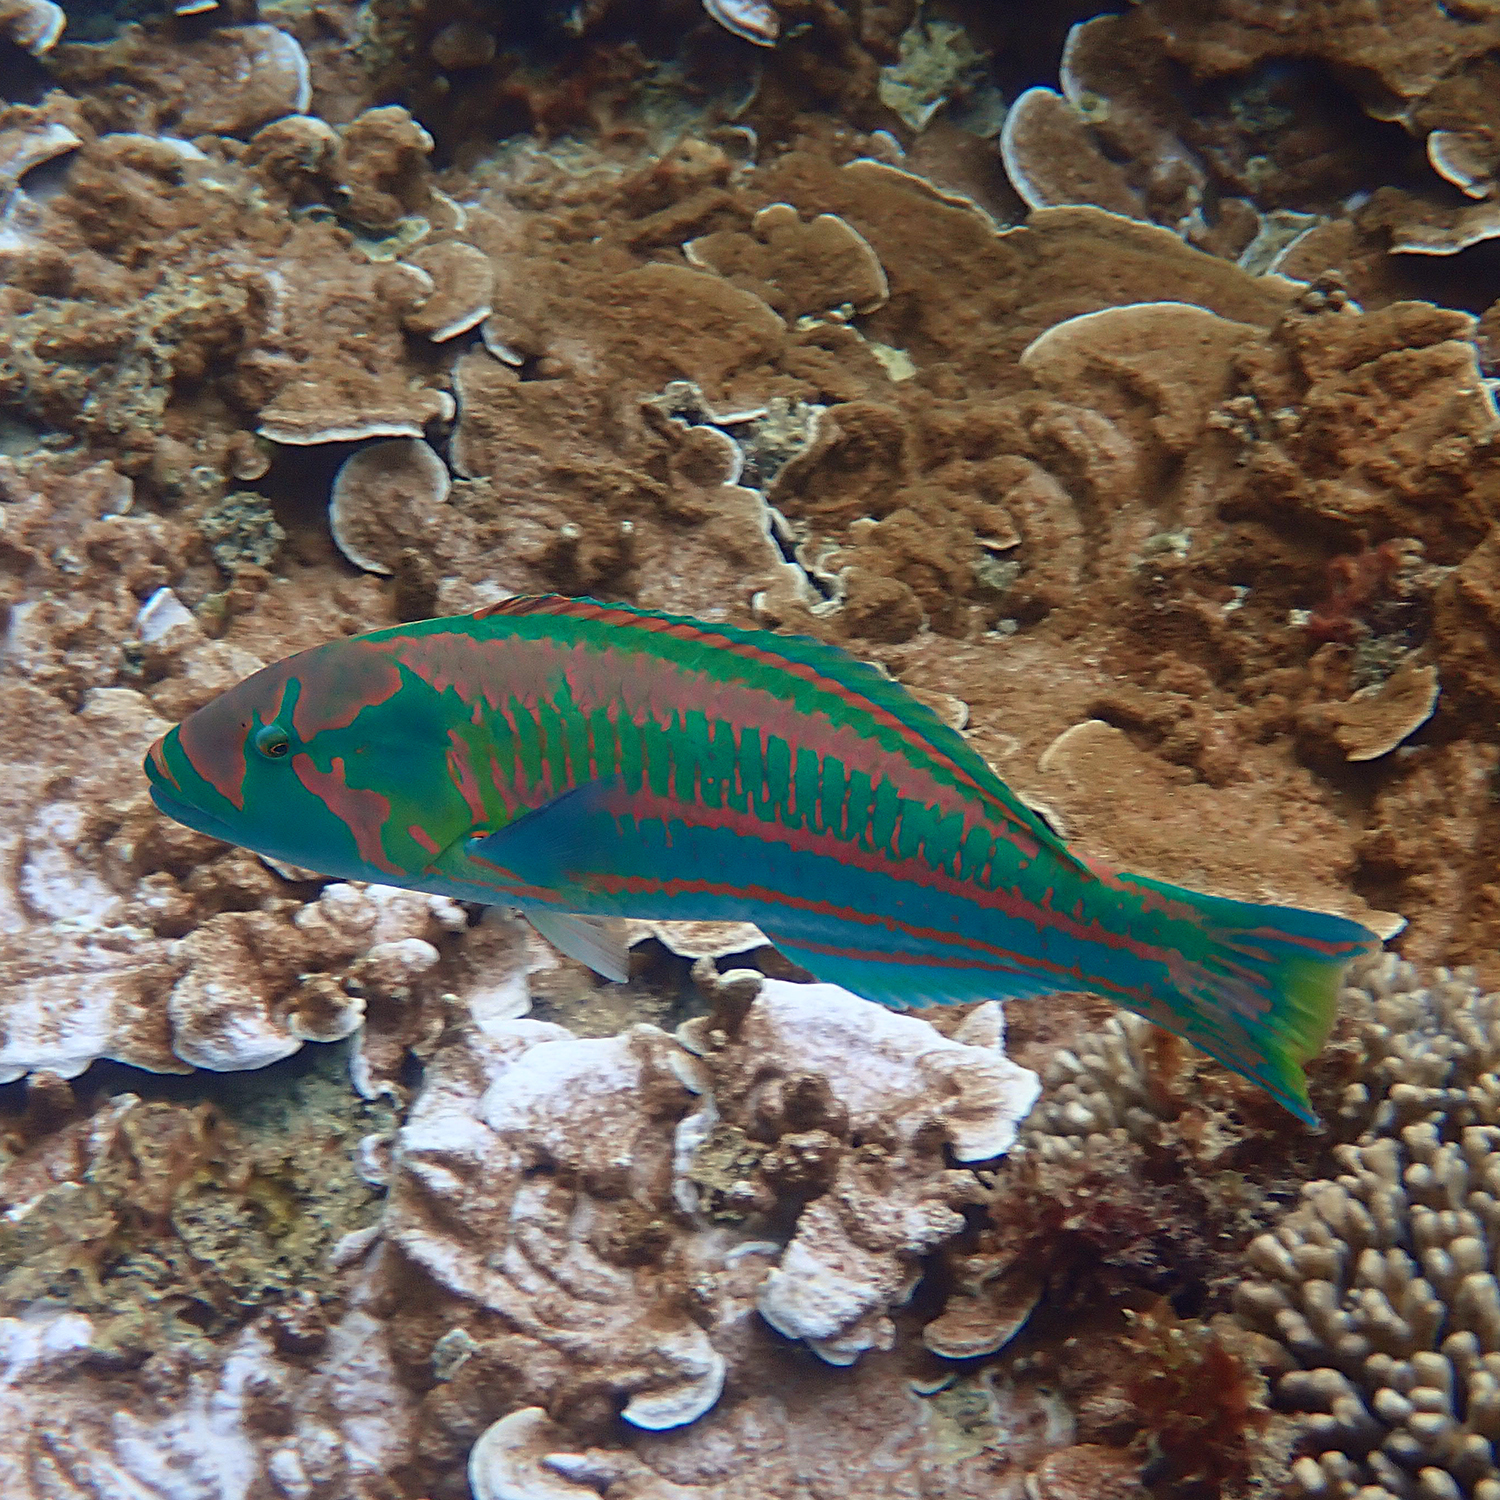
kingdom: Animalia
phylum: Chordata
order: Perciformes
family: Labridae
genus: Thalassoma
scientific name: Thalassoma purpureum
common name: Parrotfish
